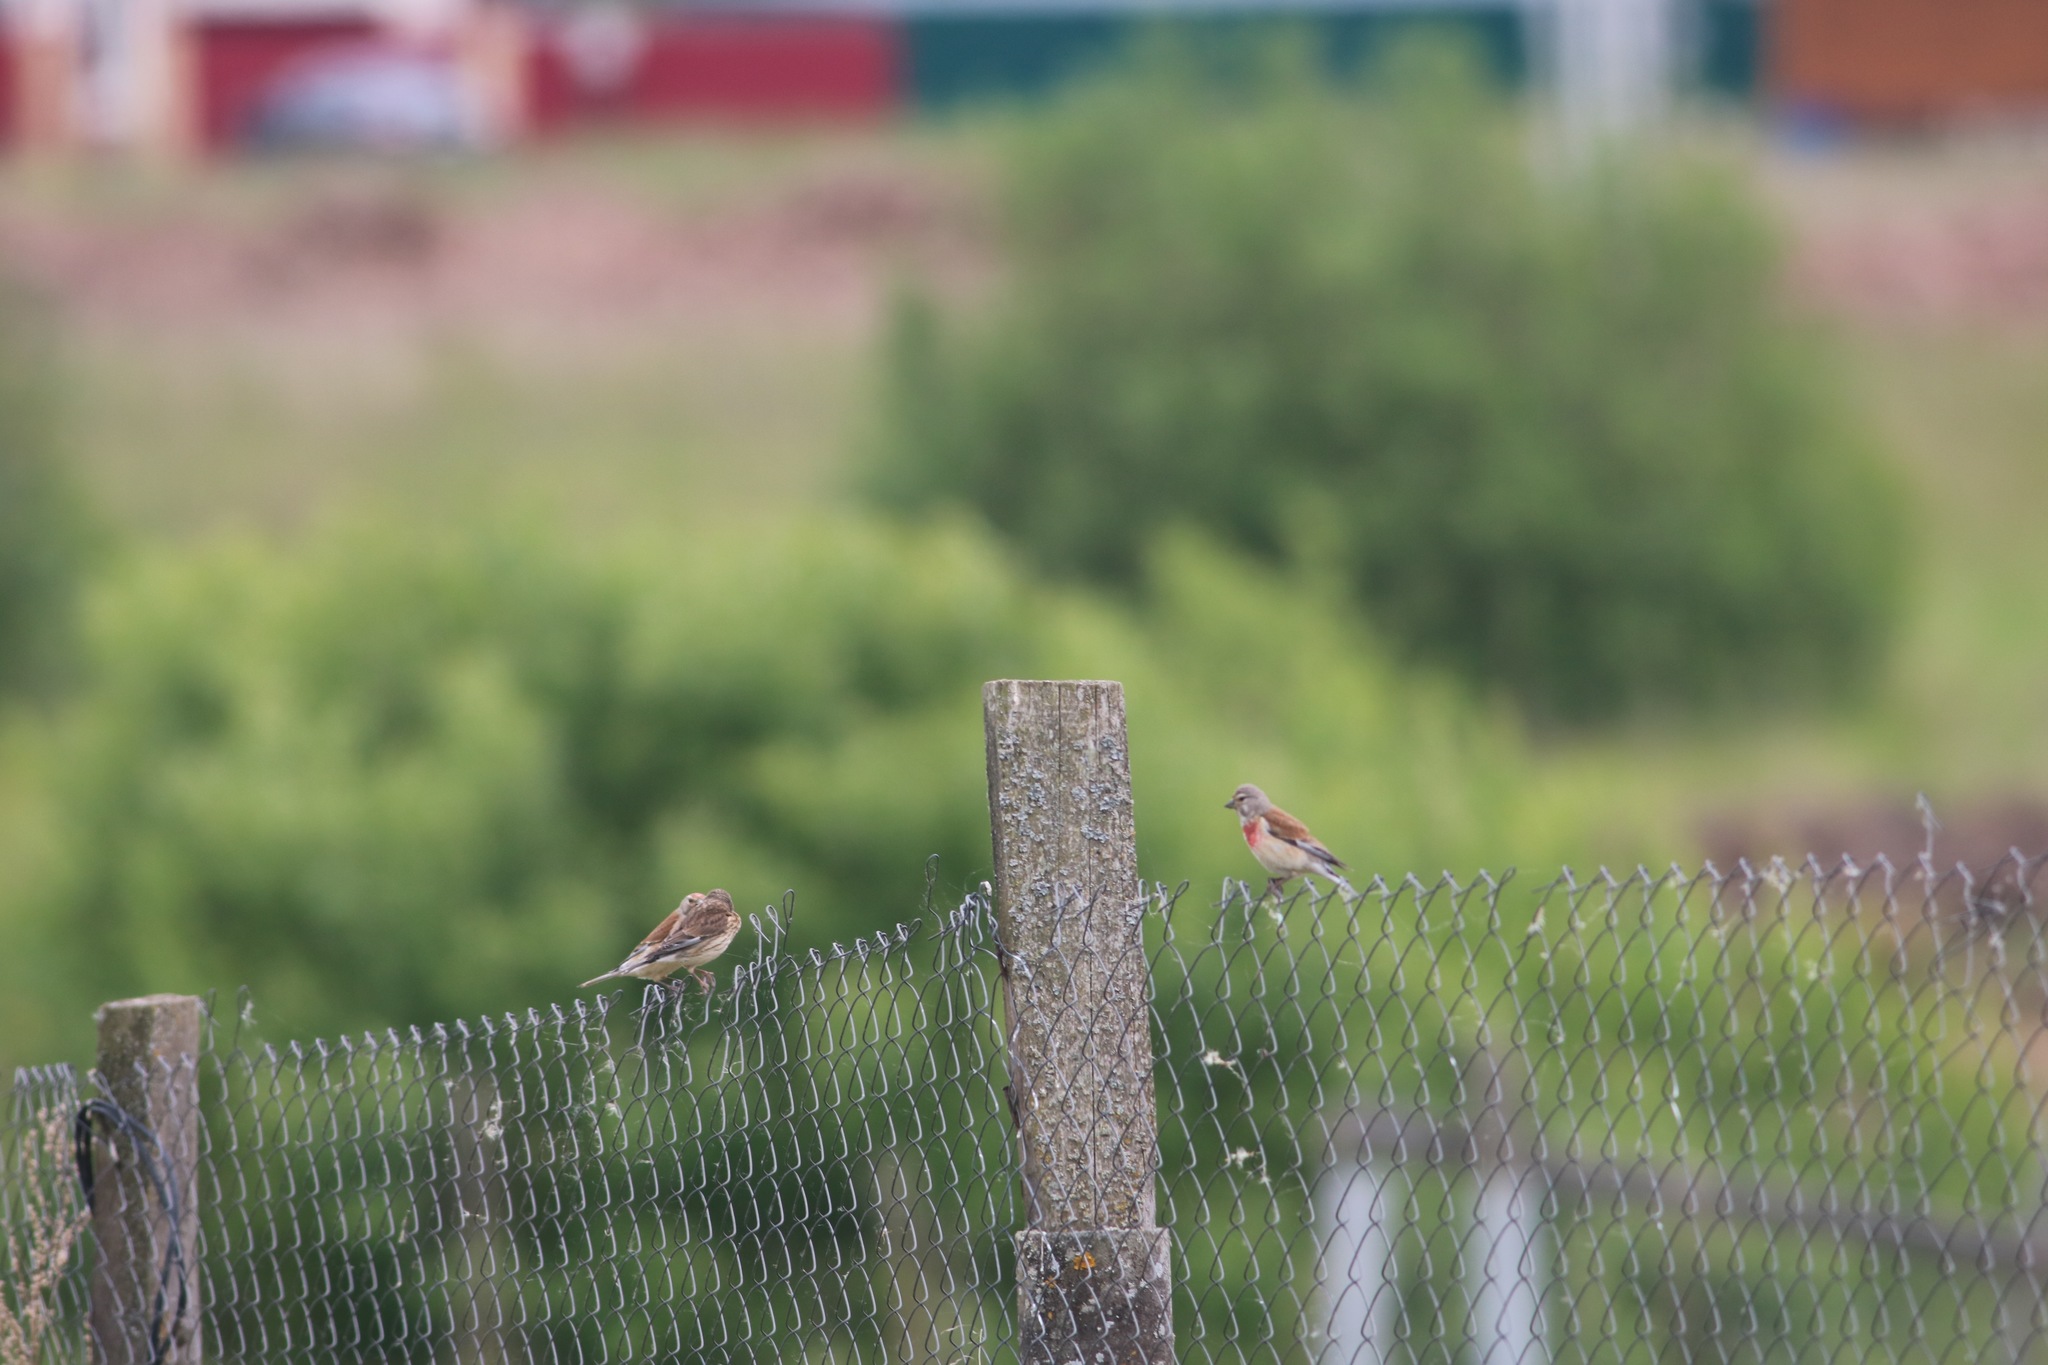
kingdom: Animalia
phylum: Chordata
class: Aves
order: Passeriformes
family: Fringillidae
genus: Linaria
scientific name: Linaria cannabina
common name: Common linnet
